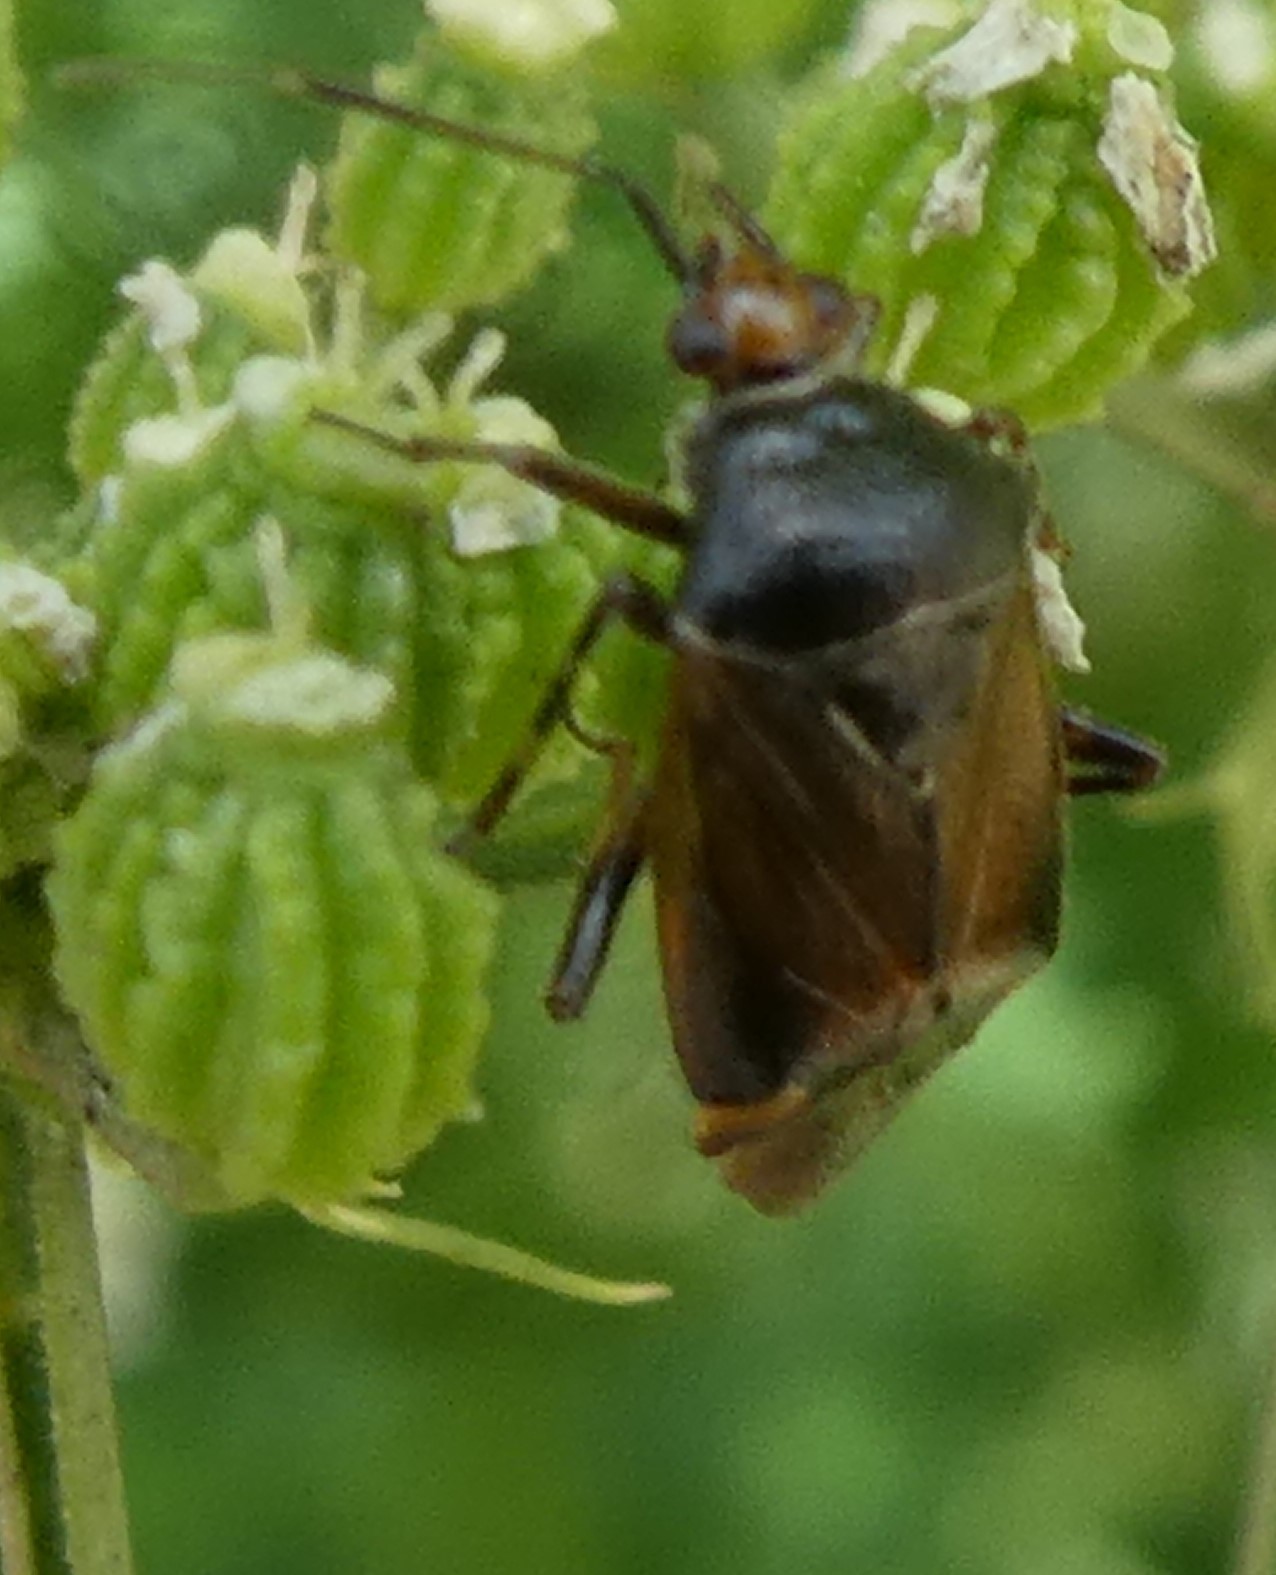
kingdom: Animalia
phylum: Arthropoda
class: Insecta
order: Hemiptera
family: Miridae
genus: Deraeocoris
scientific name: Deraeocoris flavilinea
